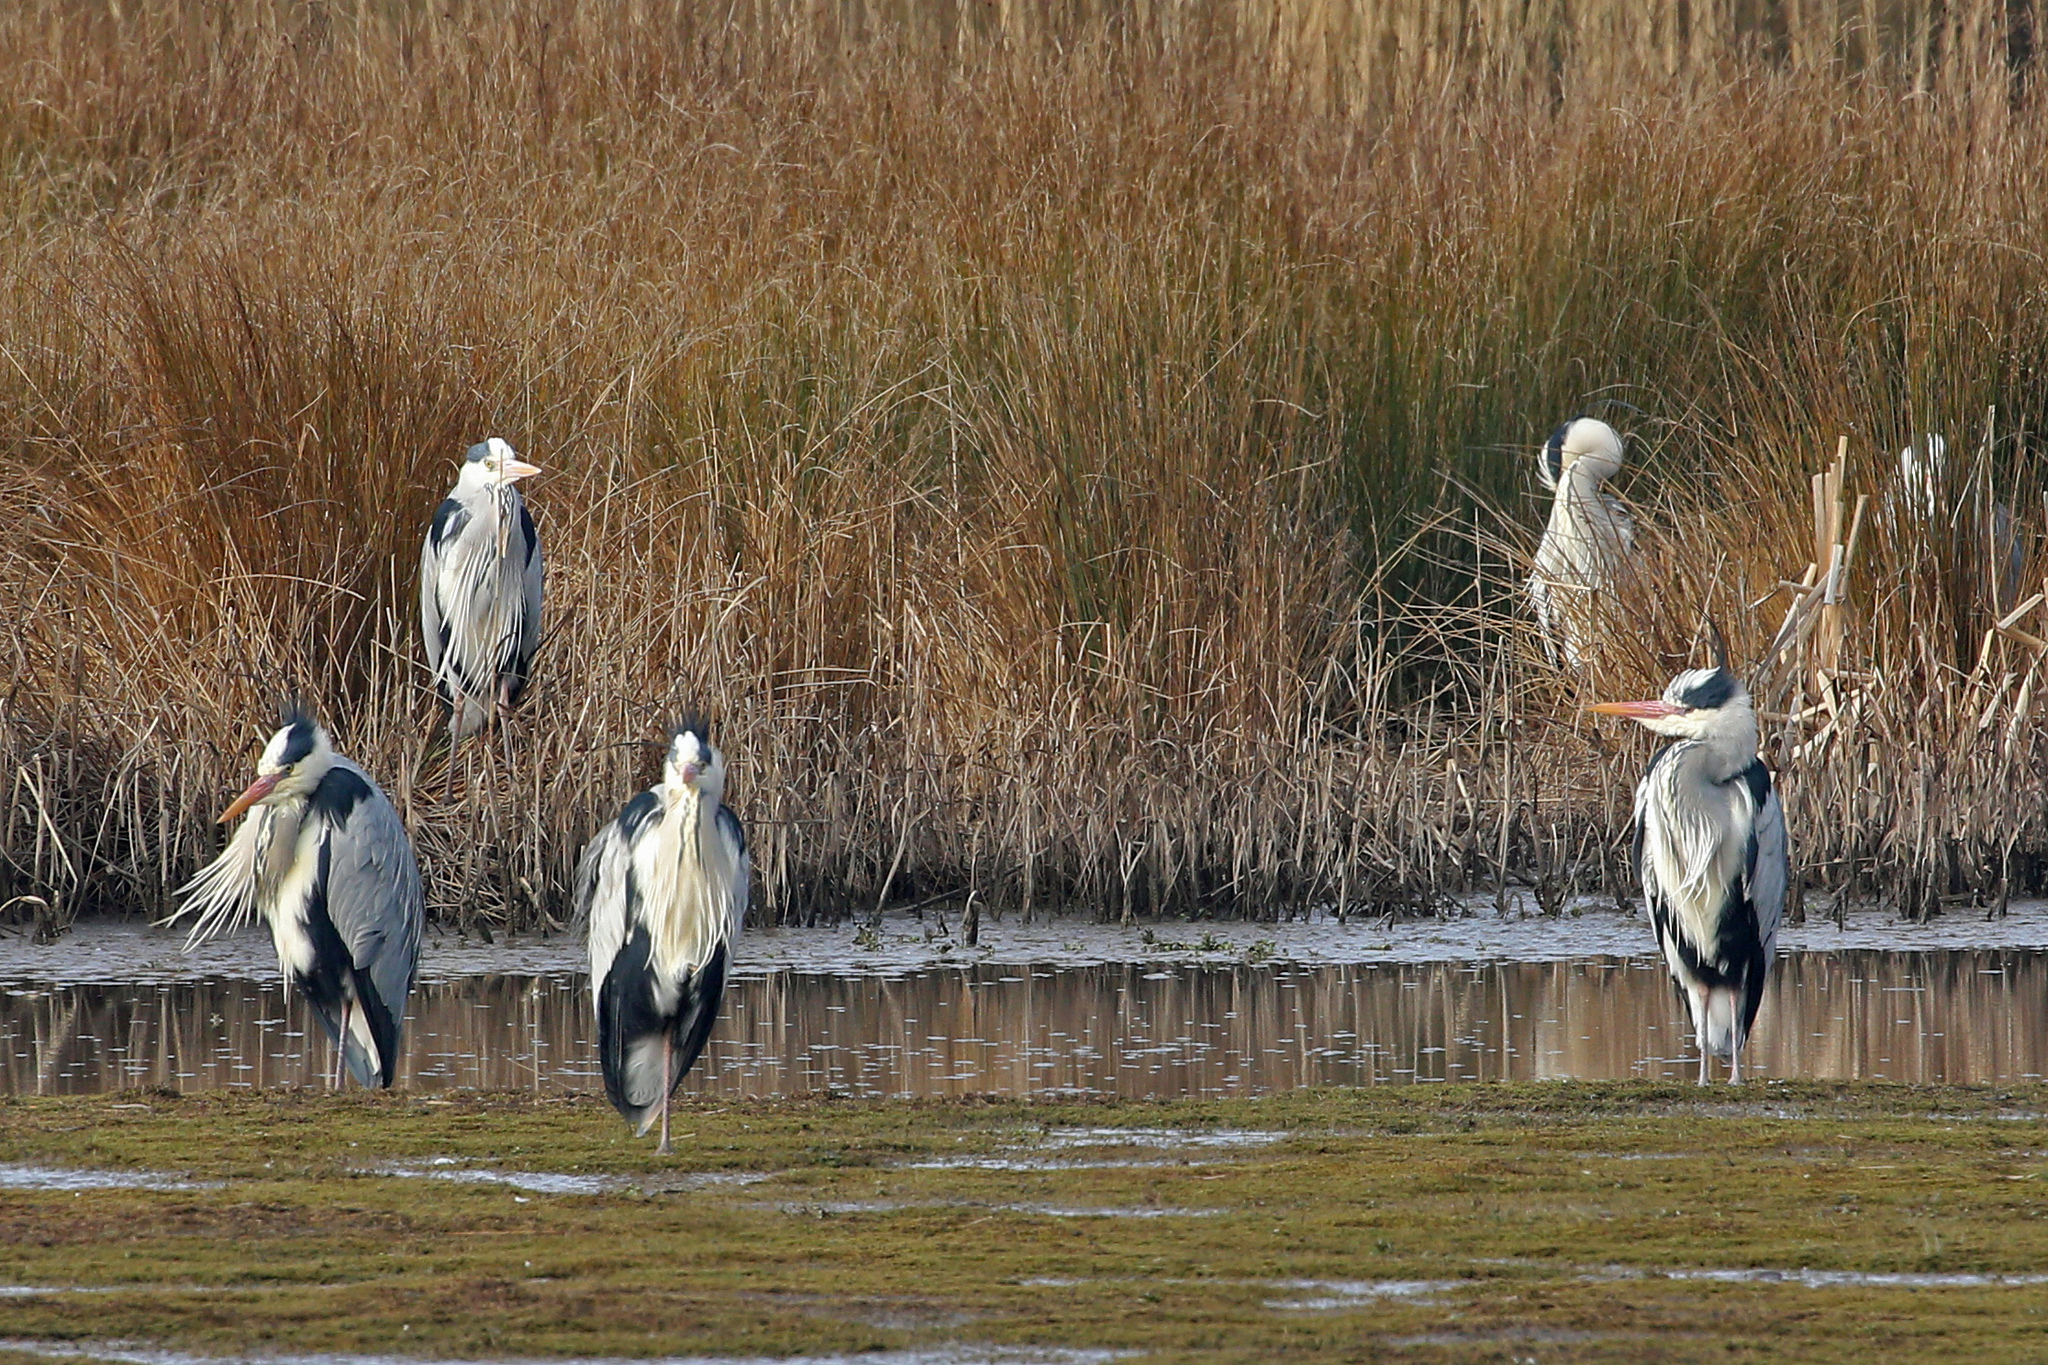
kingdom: Animalia
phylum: Chordata
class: Aves
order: Pelecaniformes
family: Ardeidae
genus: Ardea
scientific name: Ardea cinerea
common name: Grey heron
